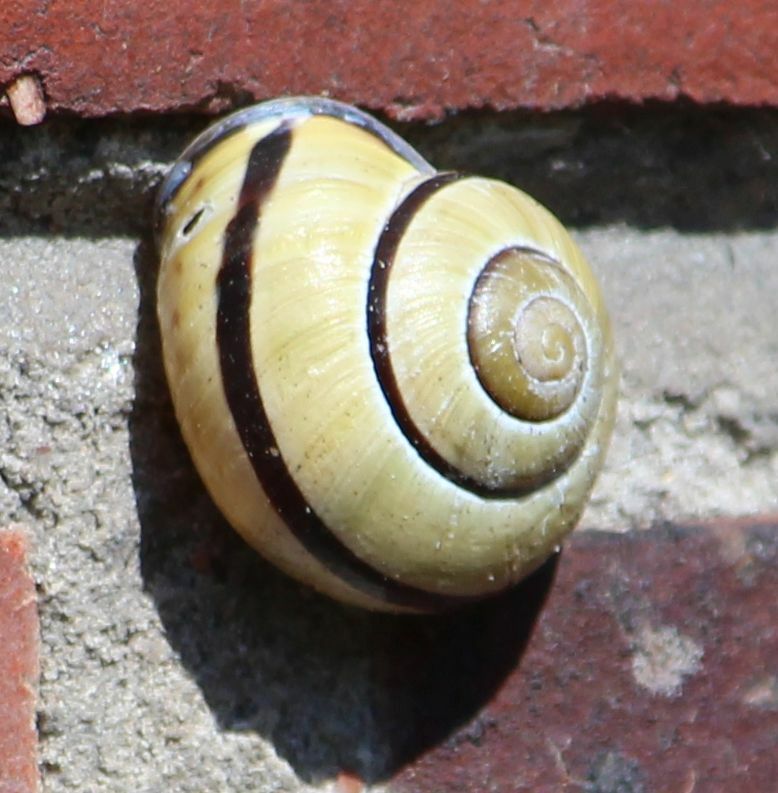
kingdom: Animalia
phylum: Mollusca
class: Gastropoda
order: Stylommatophora
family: Helicidae
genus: Cepaea
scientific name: Cepaea nemoralis
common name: Grovesnail
